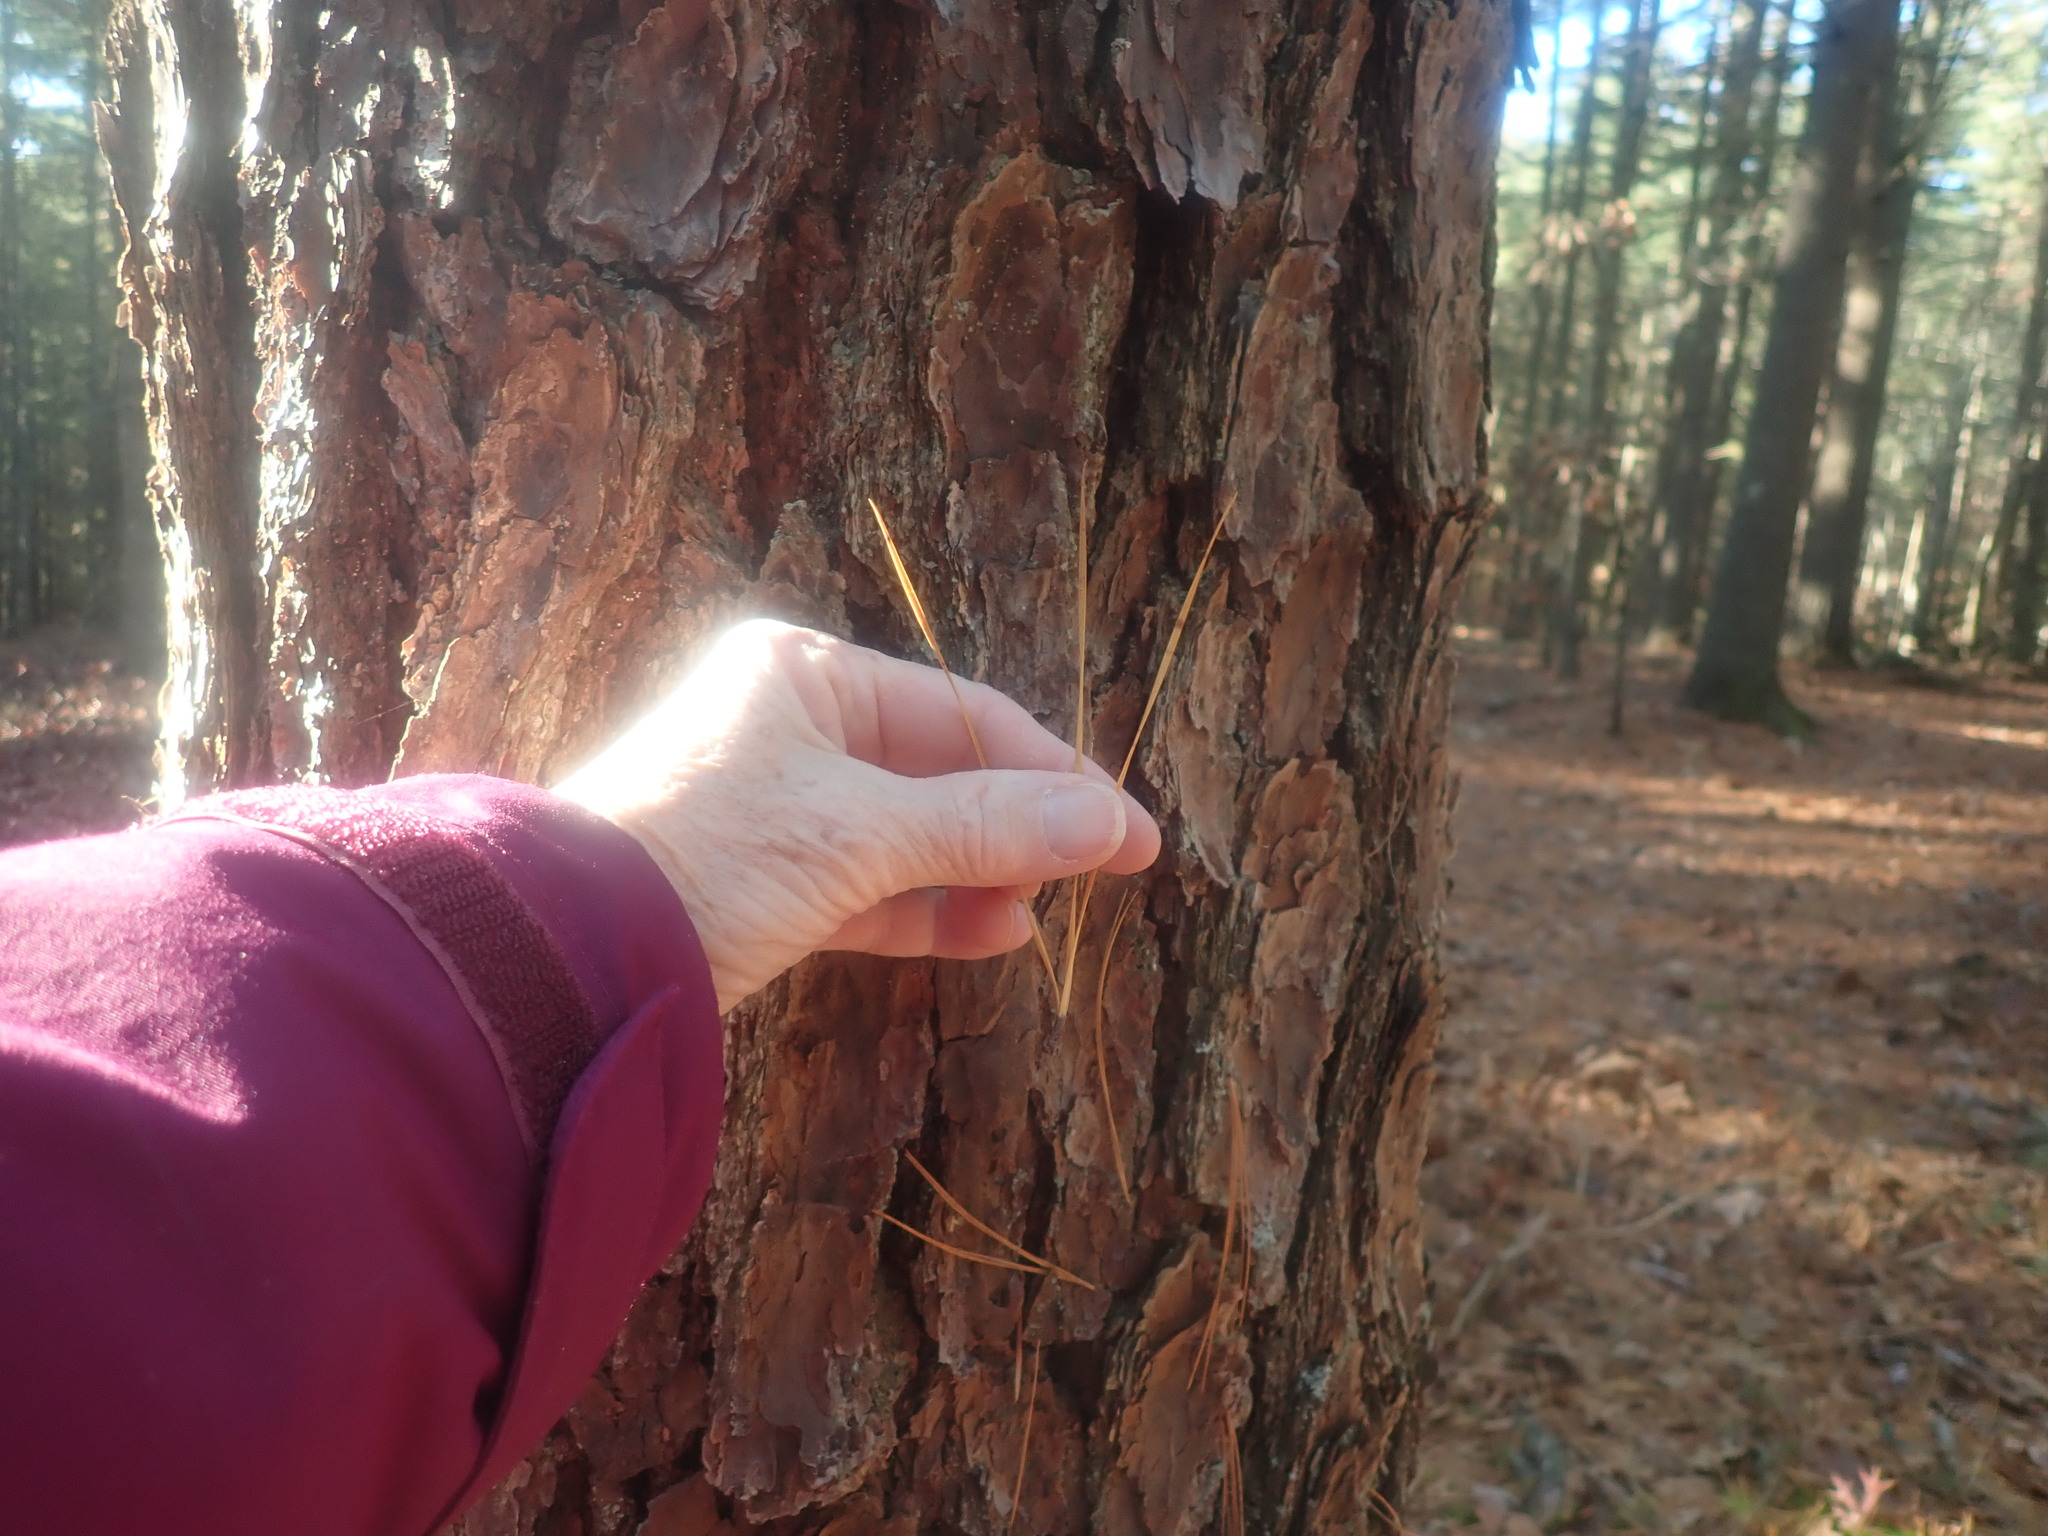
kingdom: Plantae
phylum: Tracheophyta
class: Pinopsida
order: Pinales
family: Pinaceae
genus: Pinus
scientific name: Pinus rigida
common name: Pitch pine
